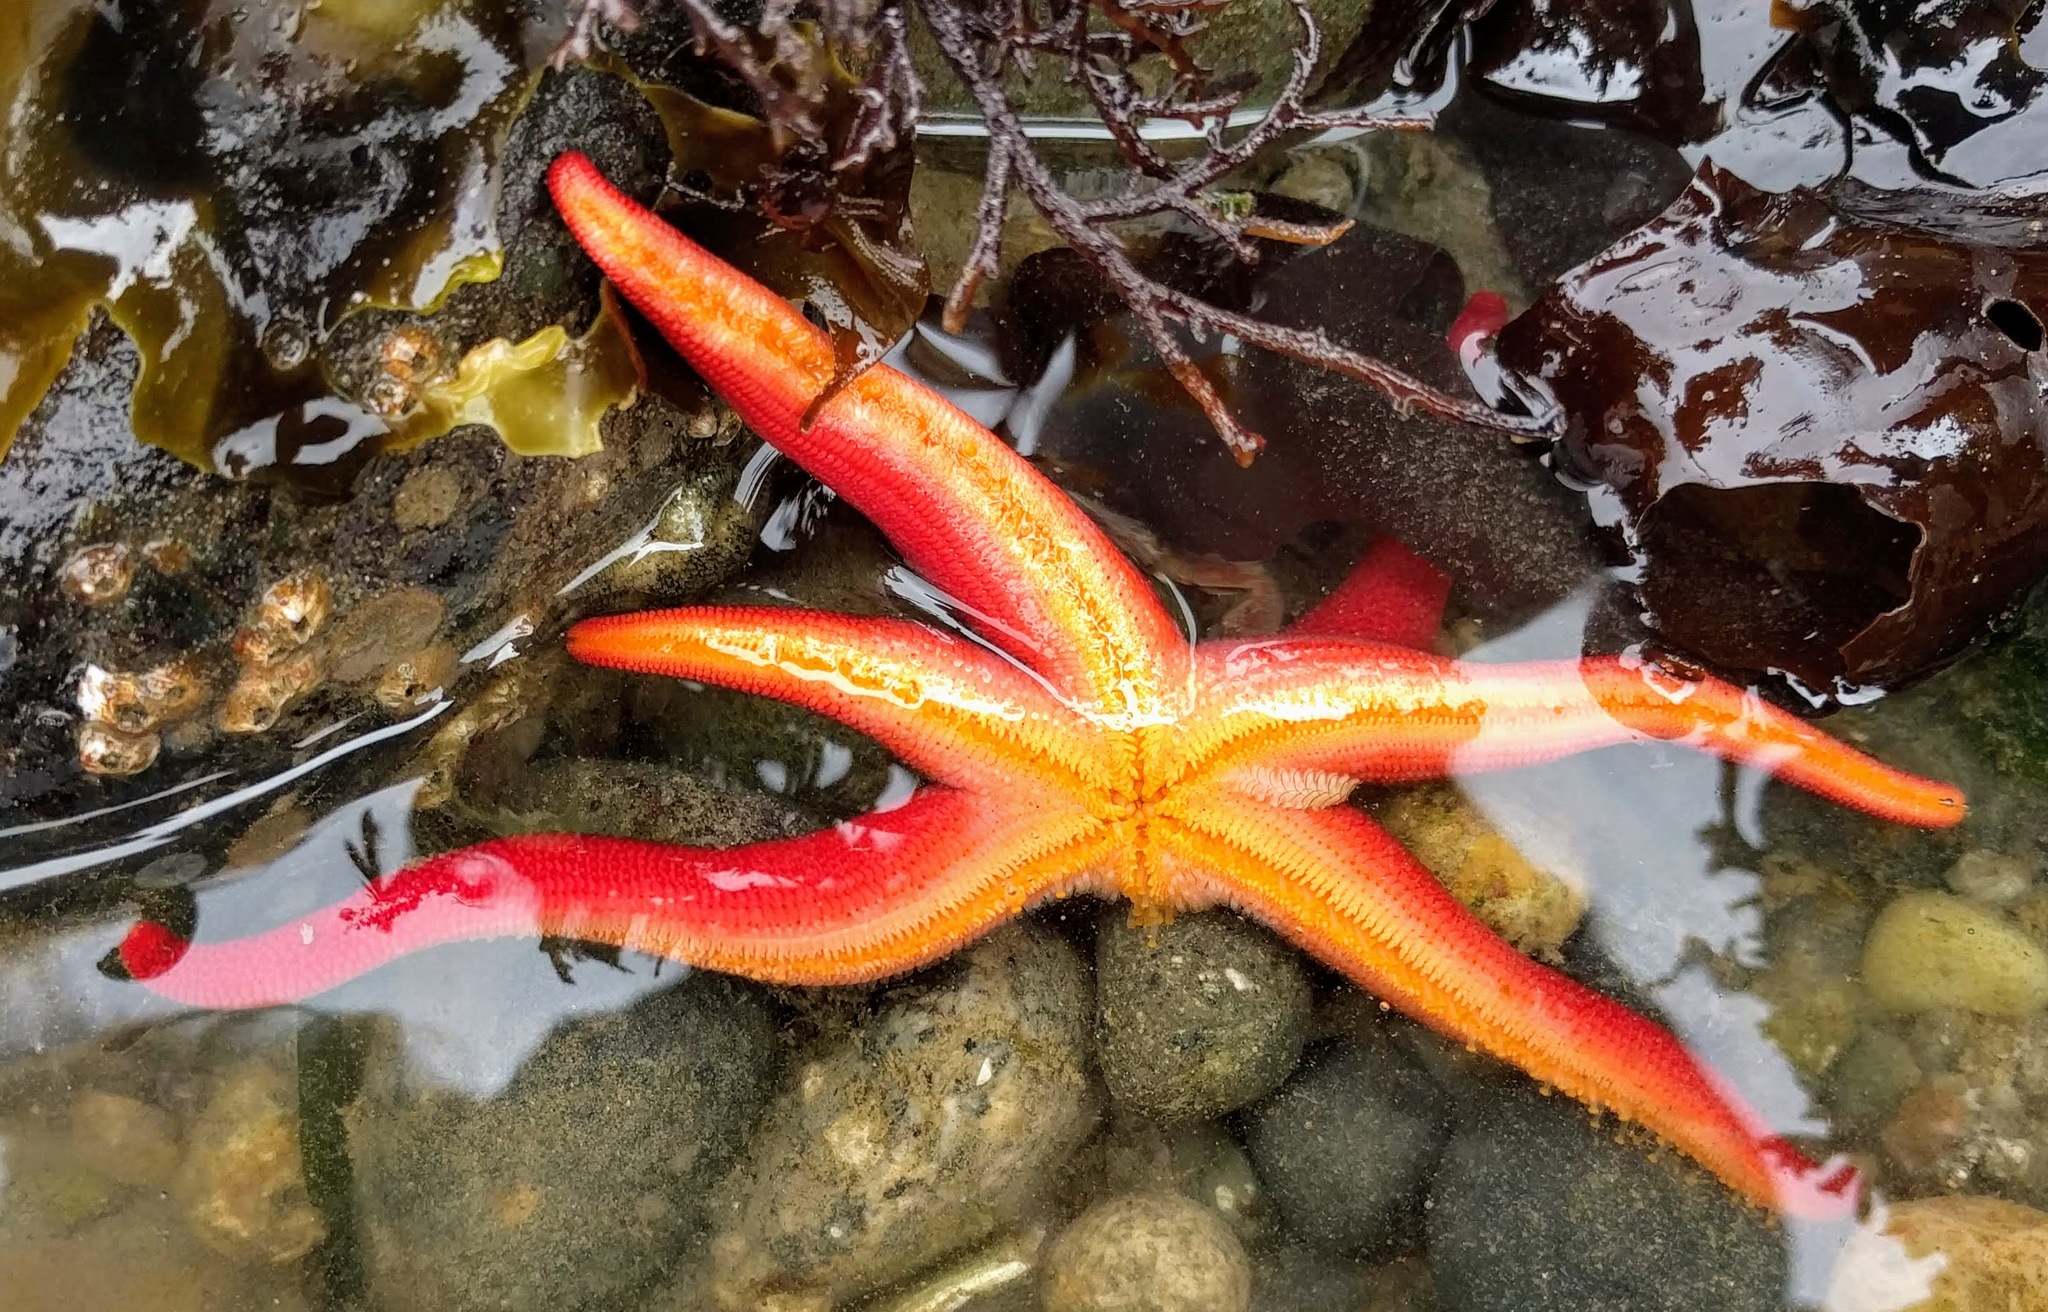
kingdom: Animalia
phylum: Echinodermata
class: Asteroidea
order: Spinulosida
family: Echinasteridae
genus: Henricia
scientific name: Henricia leviuscula
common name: Pacific blood star
